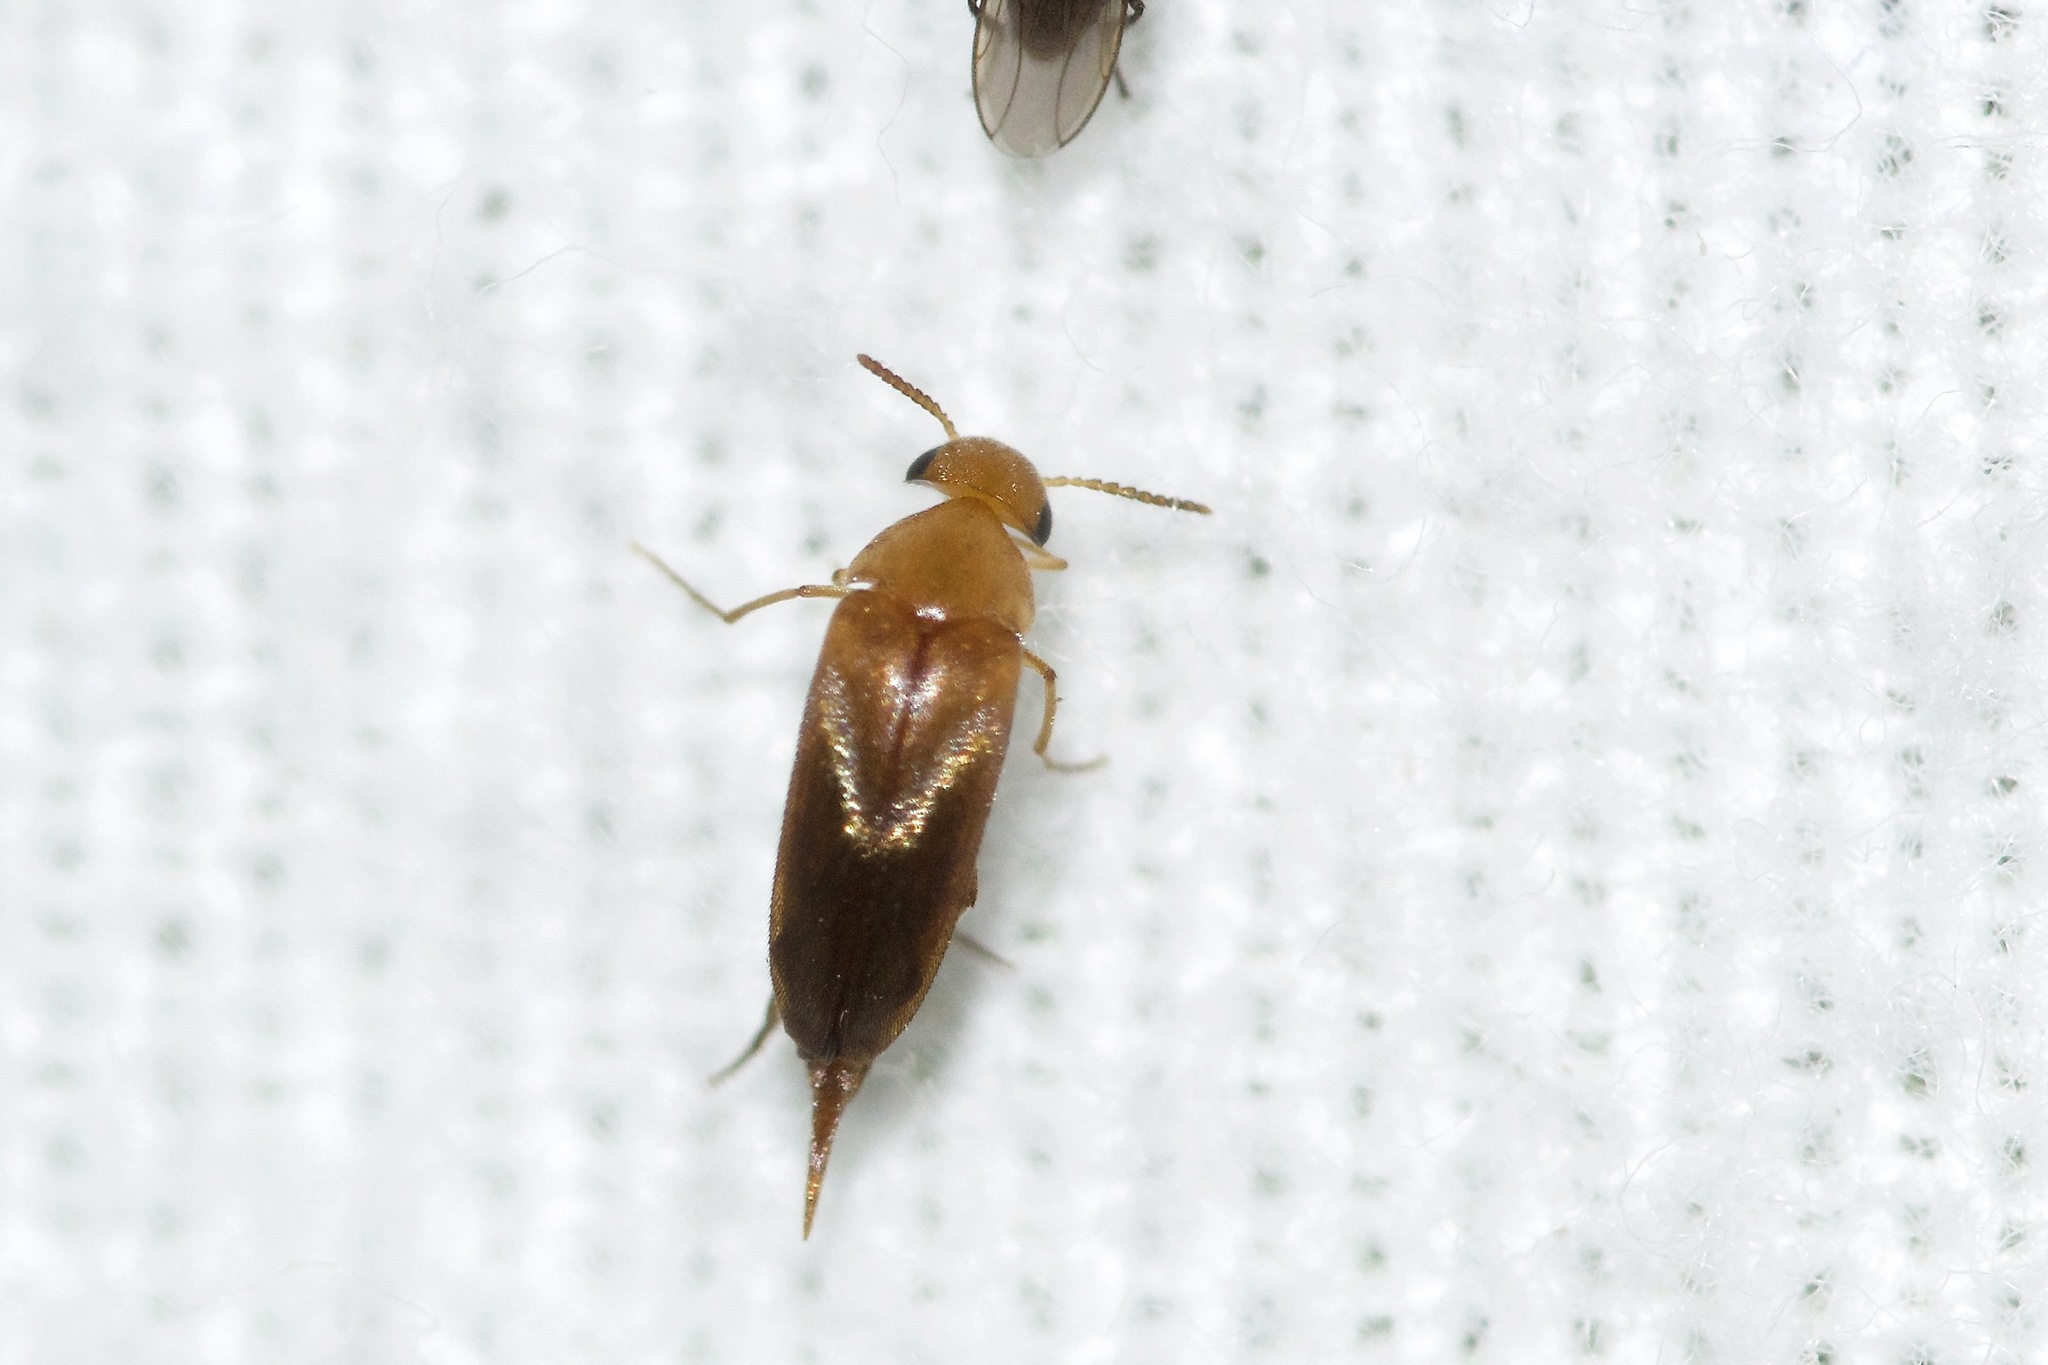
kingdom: Animalia
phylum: Arthropoda
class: Insecta
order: Coleoptera
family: Mordellidae
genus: Mordellistena
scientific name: Mordellistena vapida
